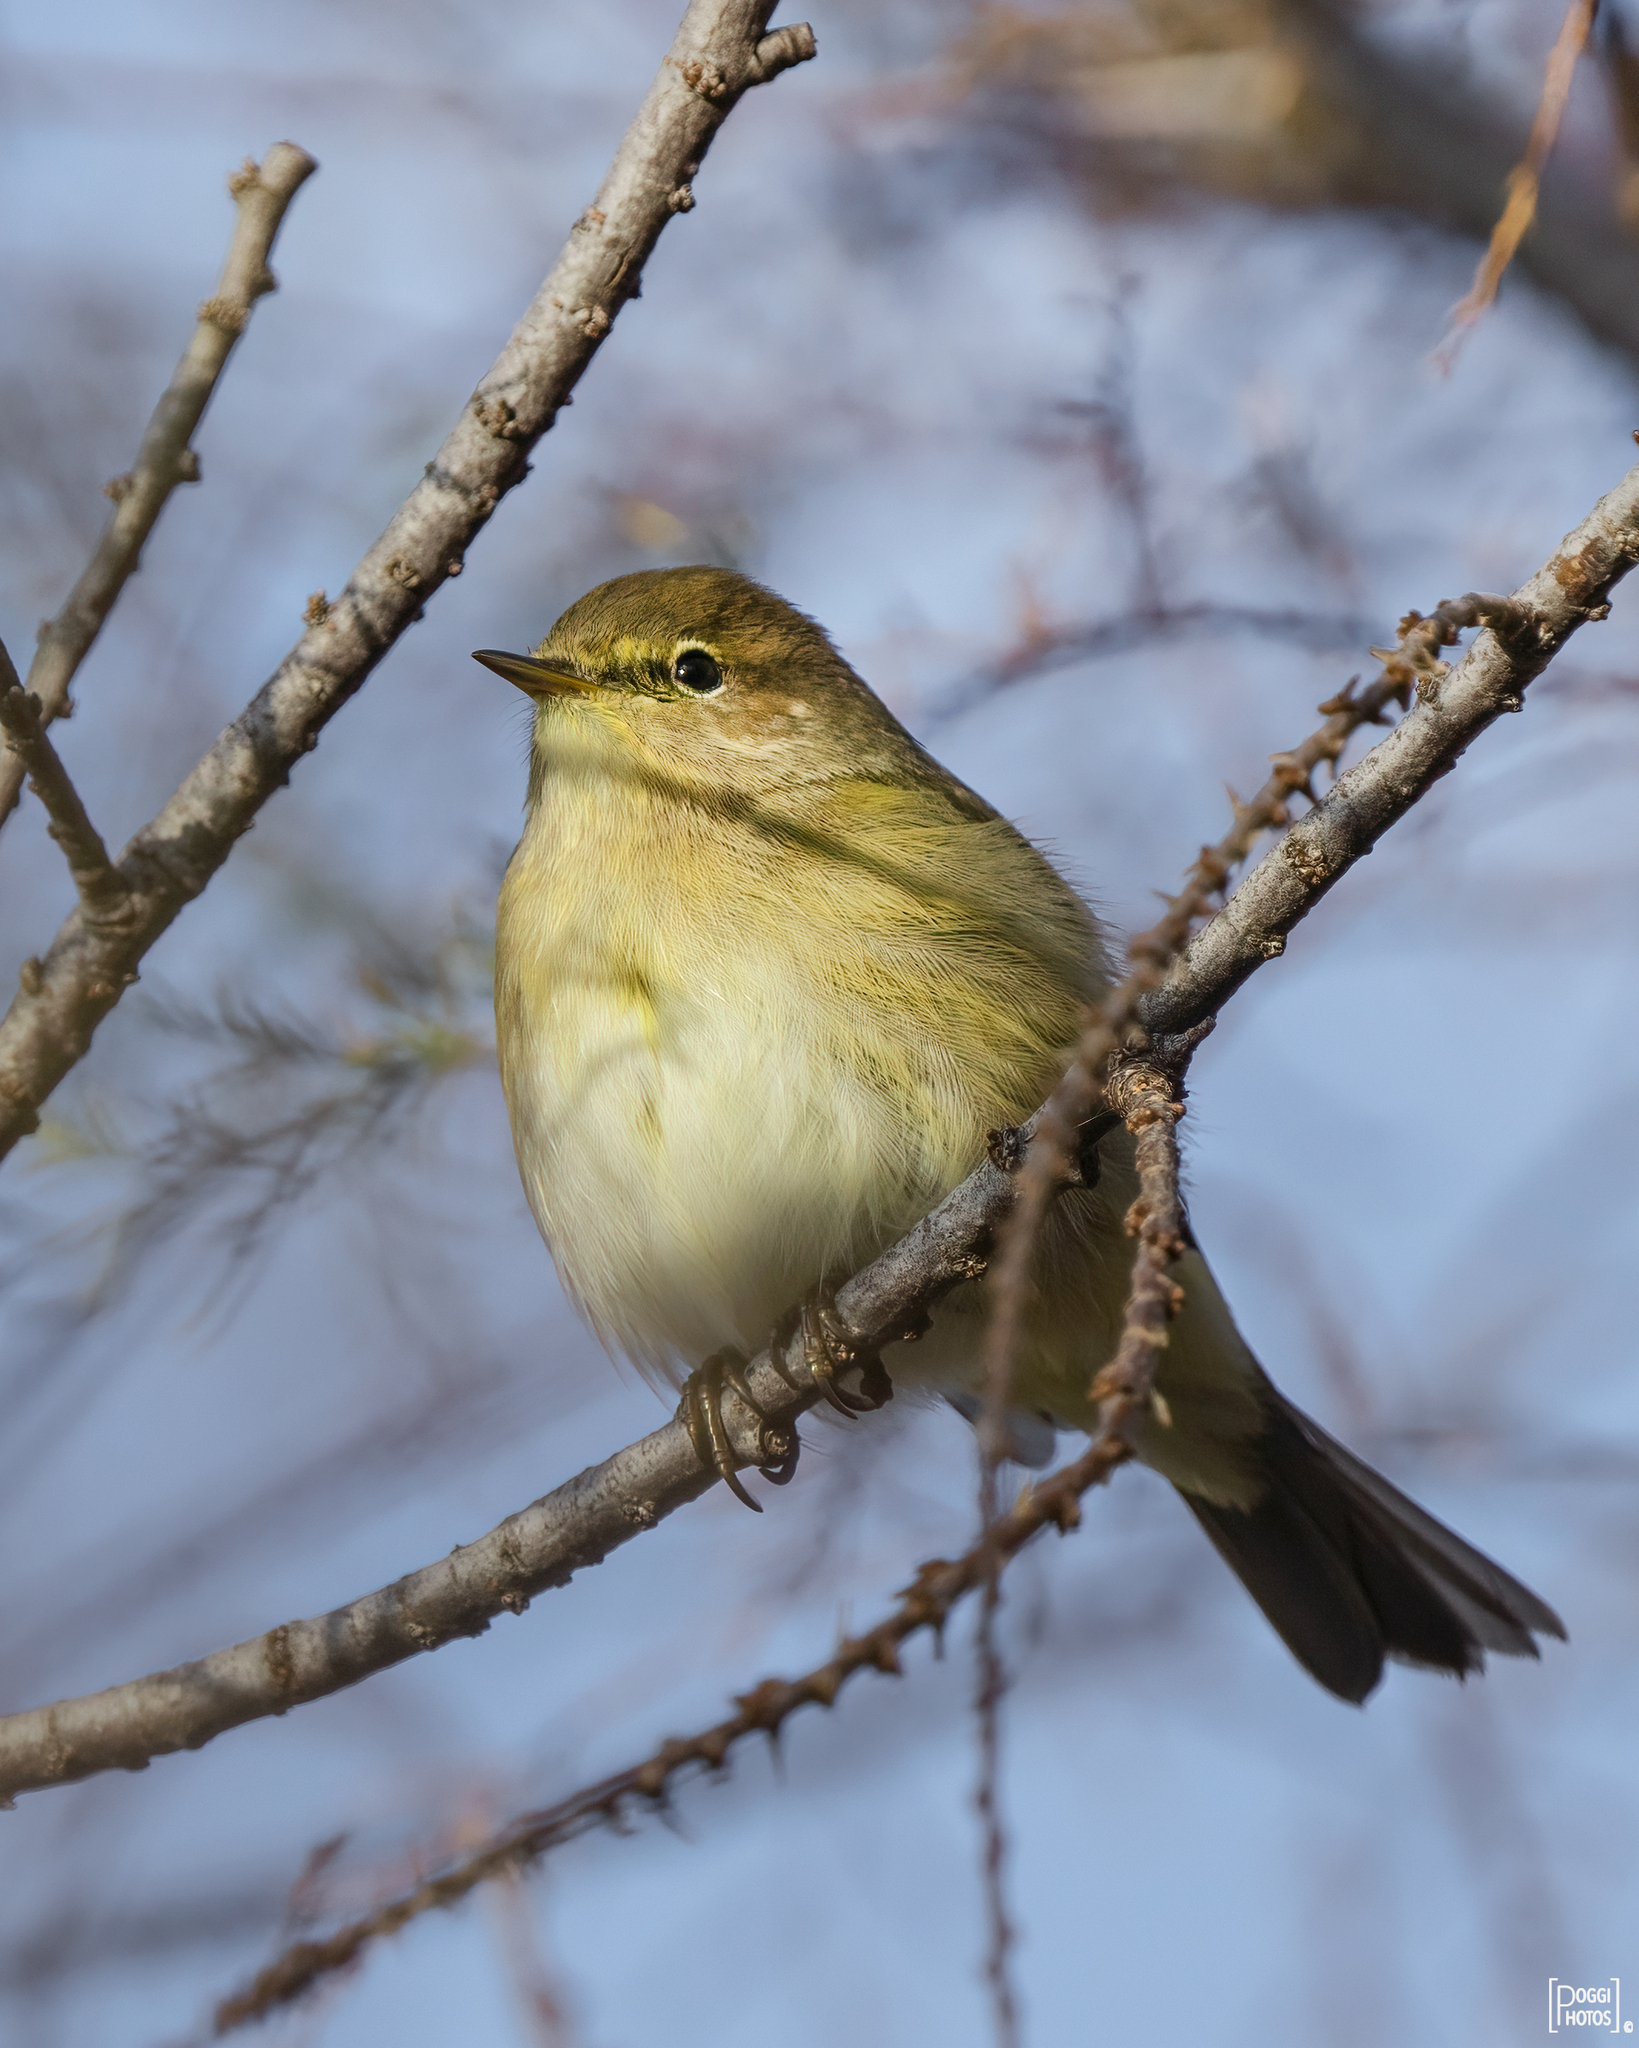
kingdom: Animalia
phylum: Chordata
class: Aves
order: Passeriformes
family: Phylloscopidae
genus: Phylloscopus
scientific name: Phylloscopus collybita
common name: Common chiffchaff
